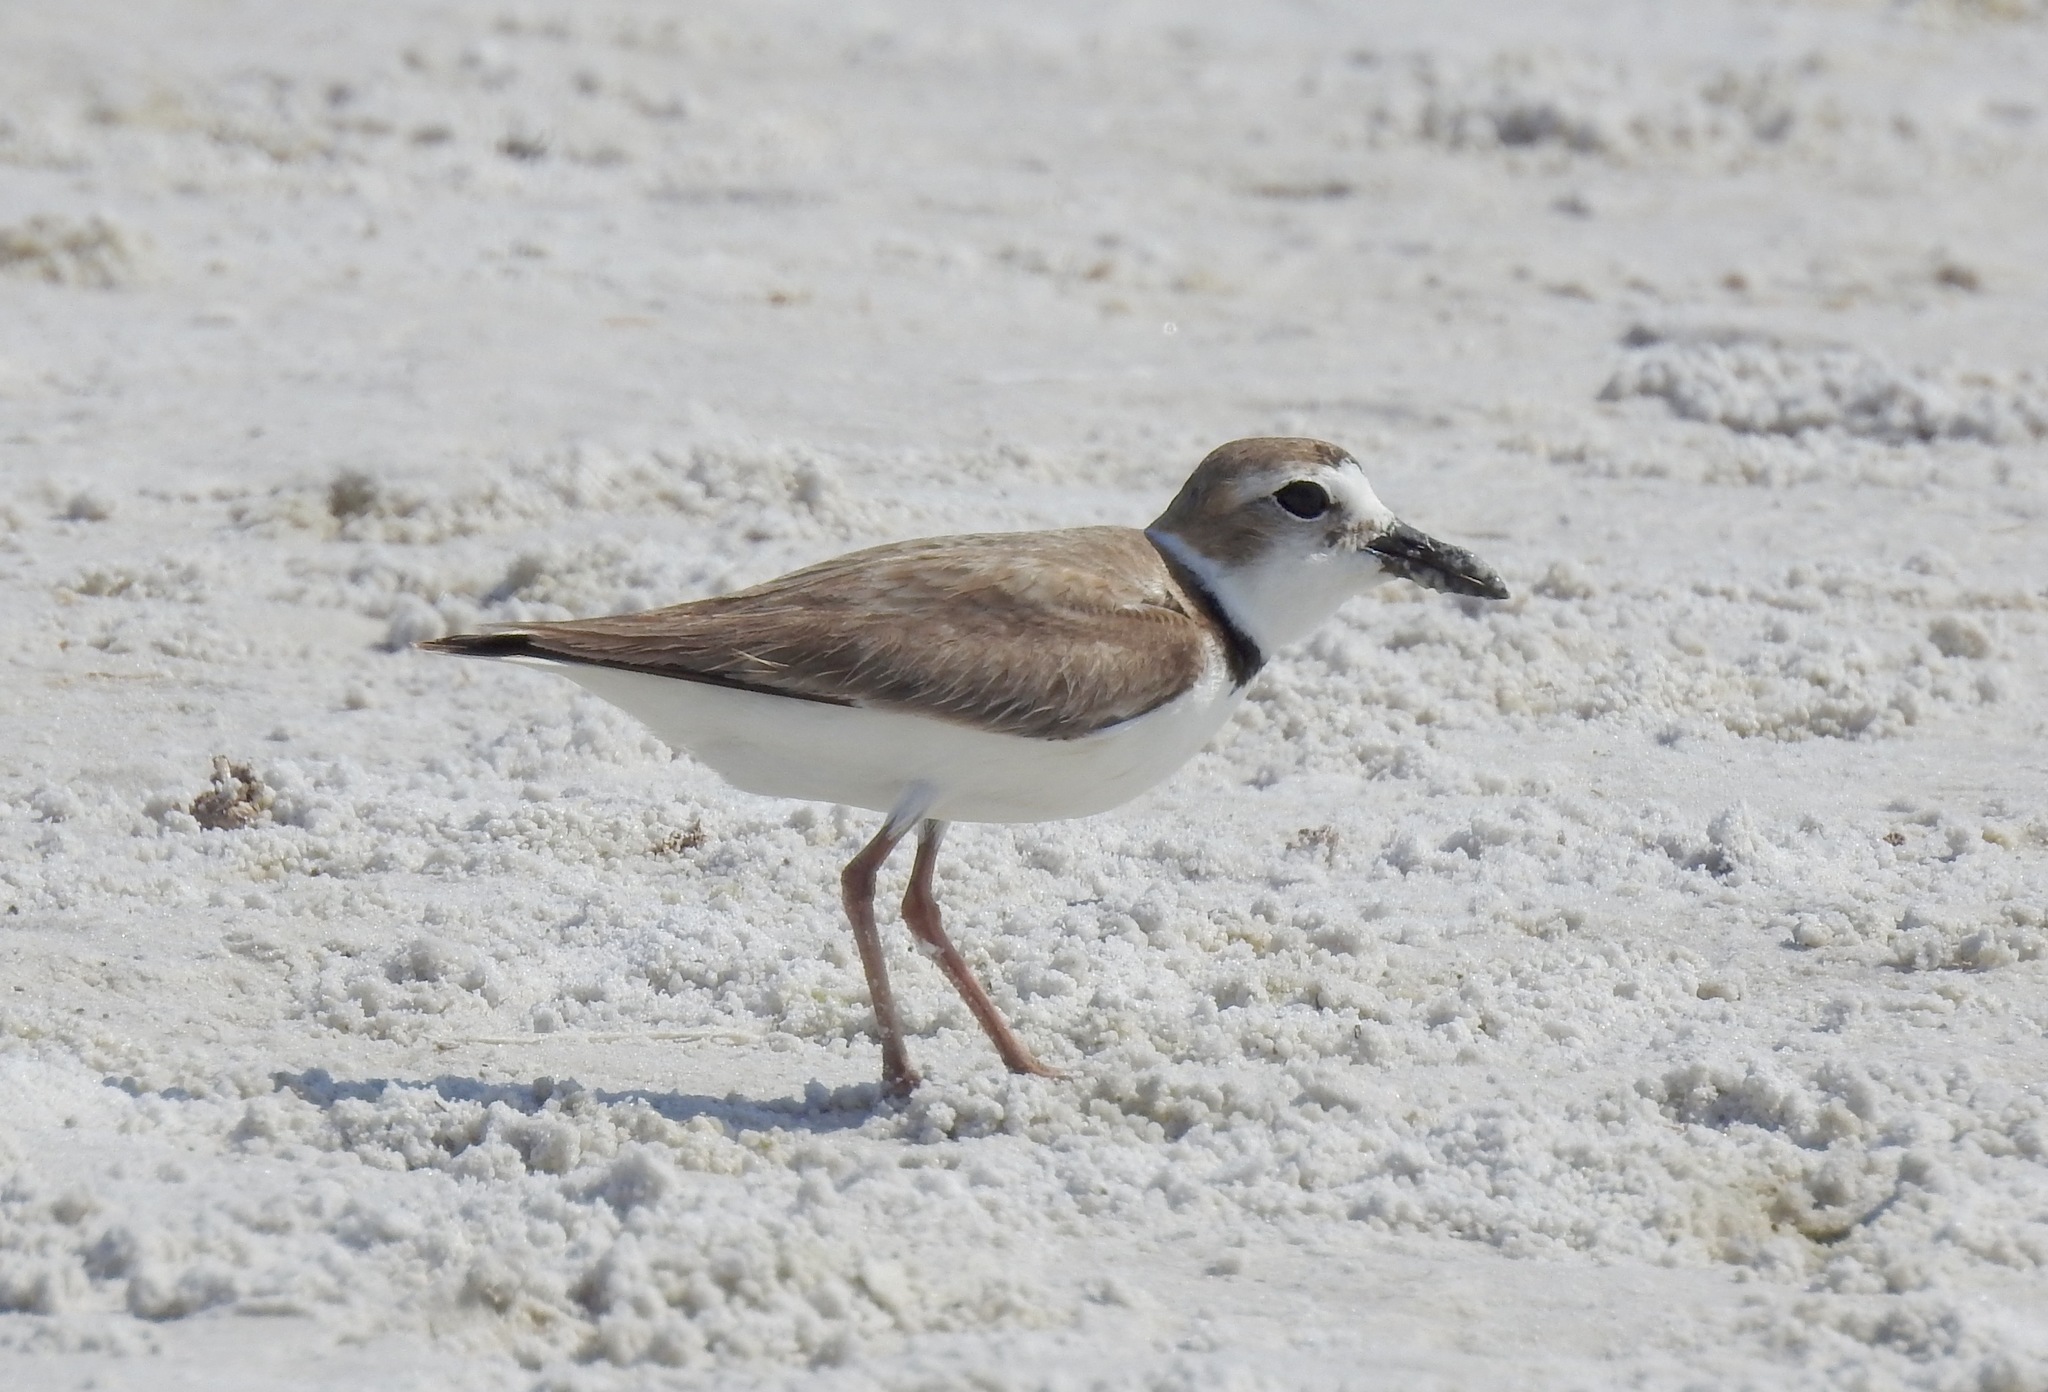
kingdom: Animalia
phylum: Chordata
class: Aves
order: Charadriiformes
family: Charadriidae
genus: Anarhynchus
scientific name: Anarhynchus
